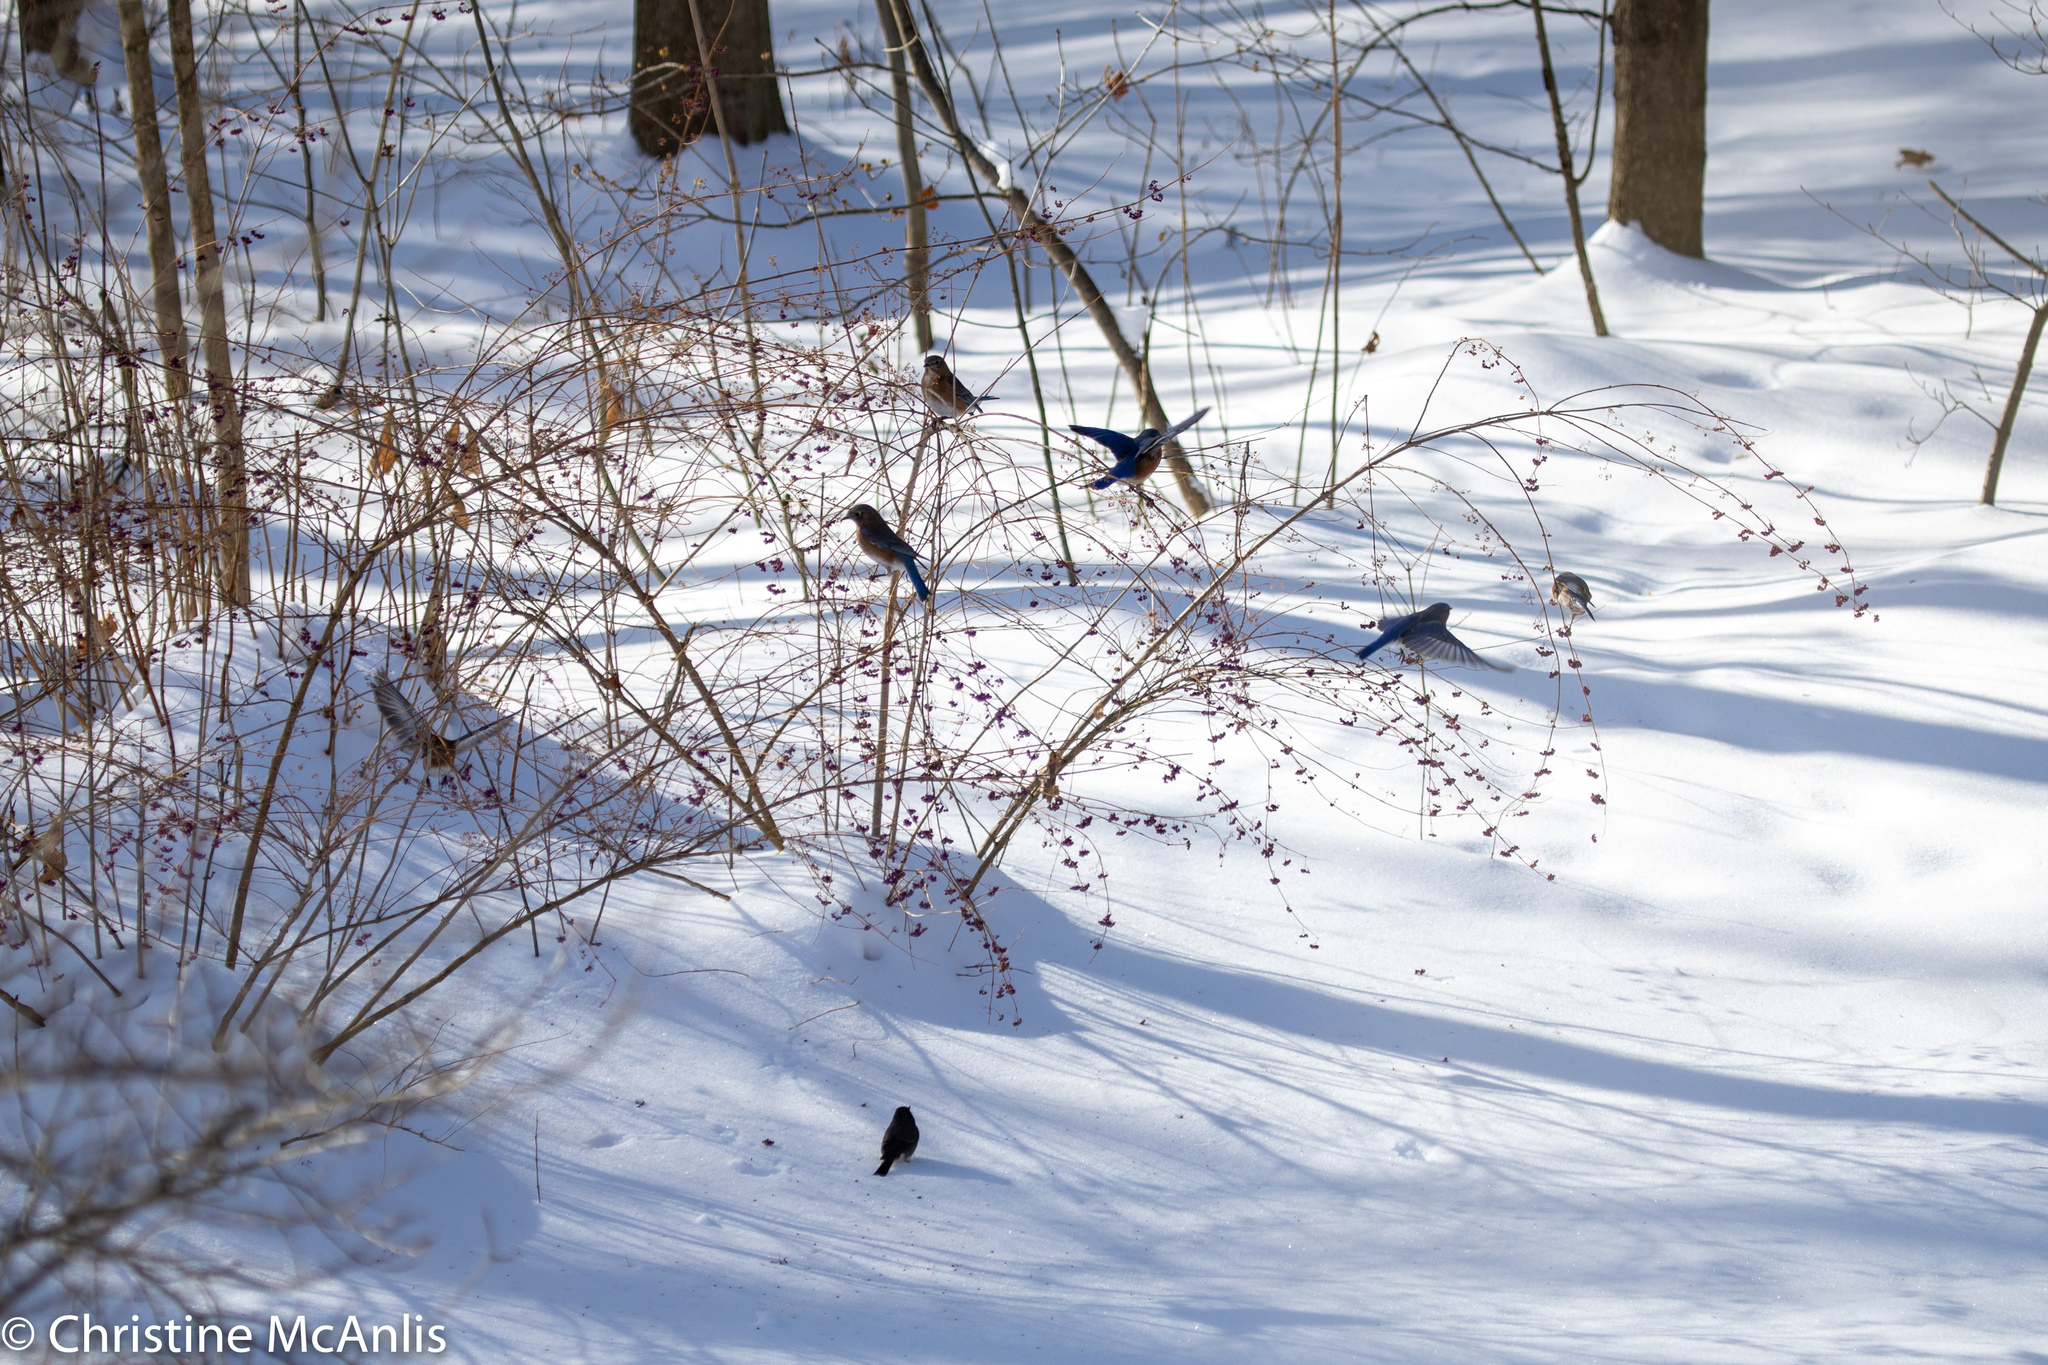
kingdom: Animalia
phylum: Chordata
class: Aves
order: Passeriformes
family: Turdidae
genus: Sialia
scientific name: Sialia sialis
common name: Eastern bluebird
